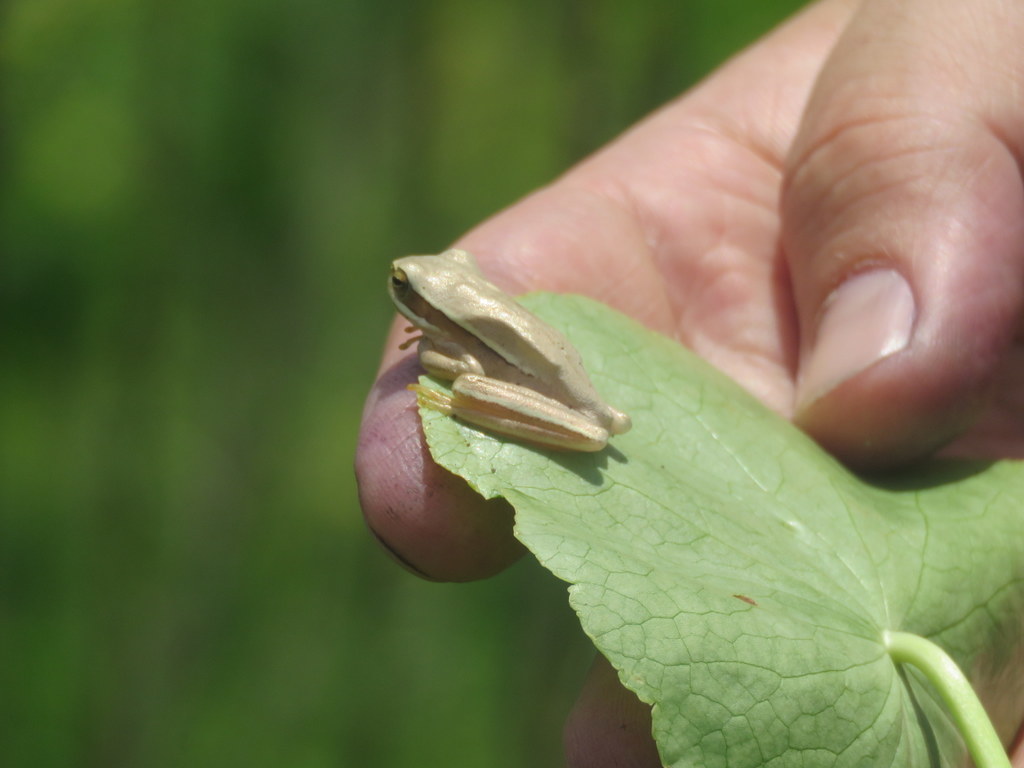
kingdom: Animalia
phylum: Chordata
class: Amphibia
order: Anura
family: Hylidae
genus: Boana
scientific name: Boana pulchella
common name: Montevideo treefrog
